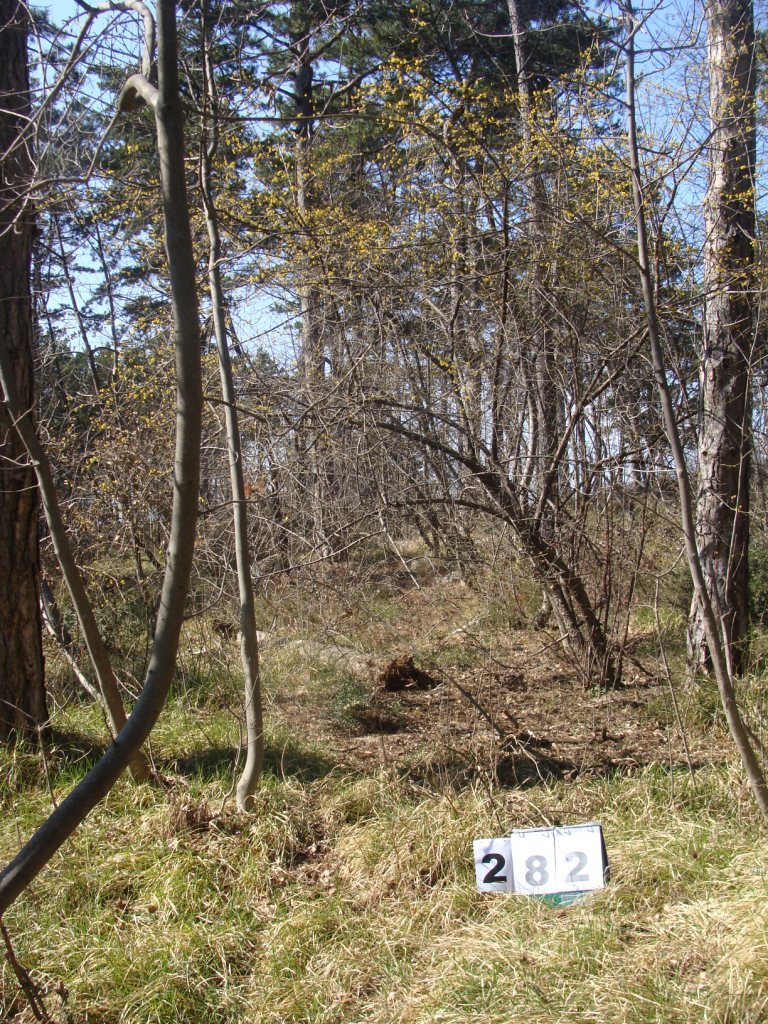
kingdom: Plantae
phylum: Tracheophyta
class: Magnoliopsida
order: Cornales
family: Cornaceae
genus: Cornus
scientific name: Cornus mas
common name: Cornelian-cherry
